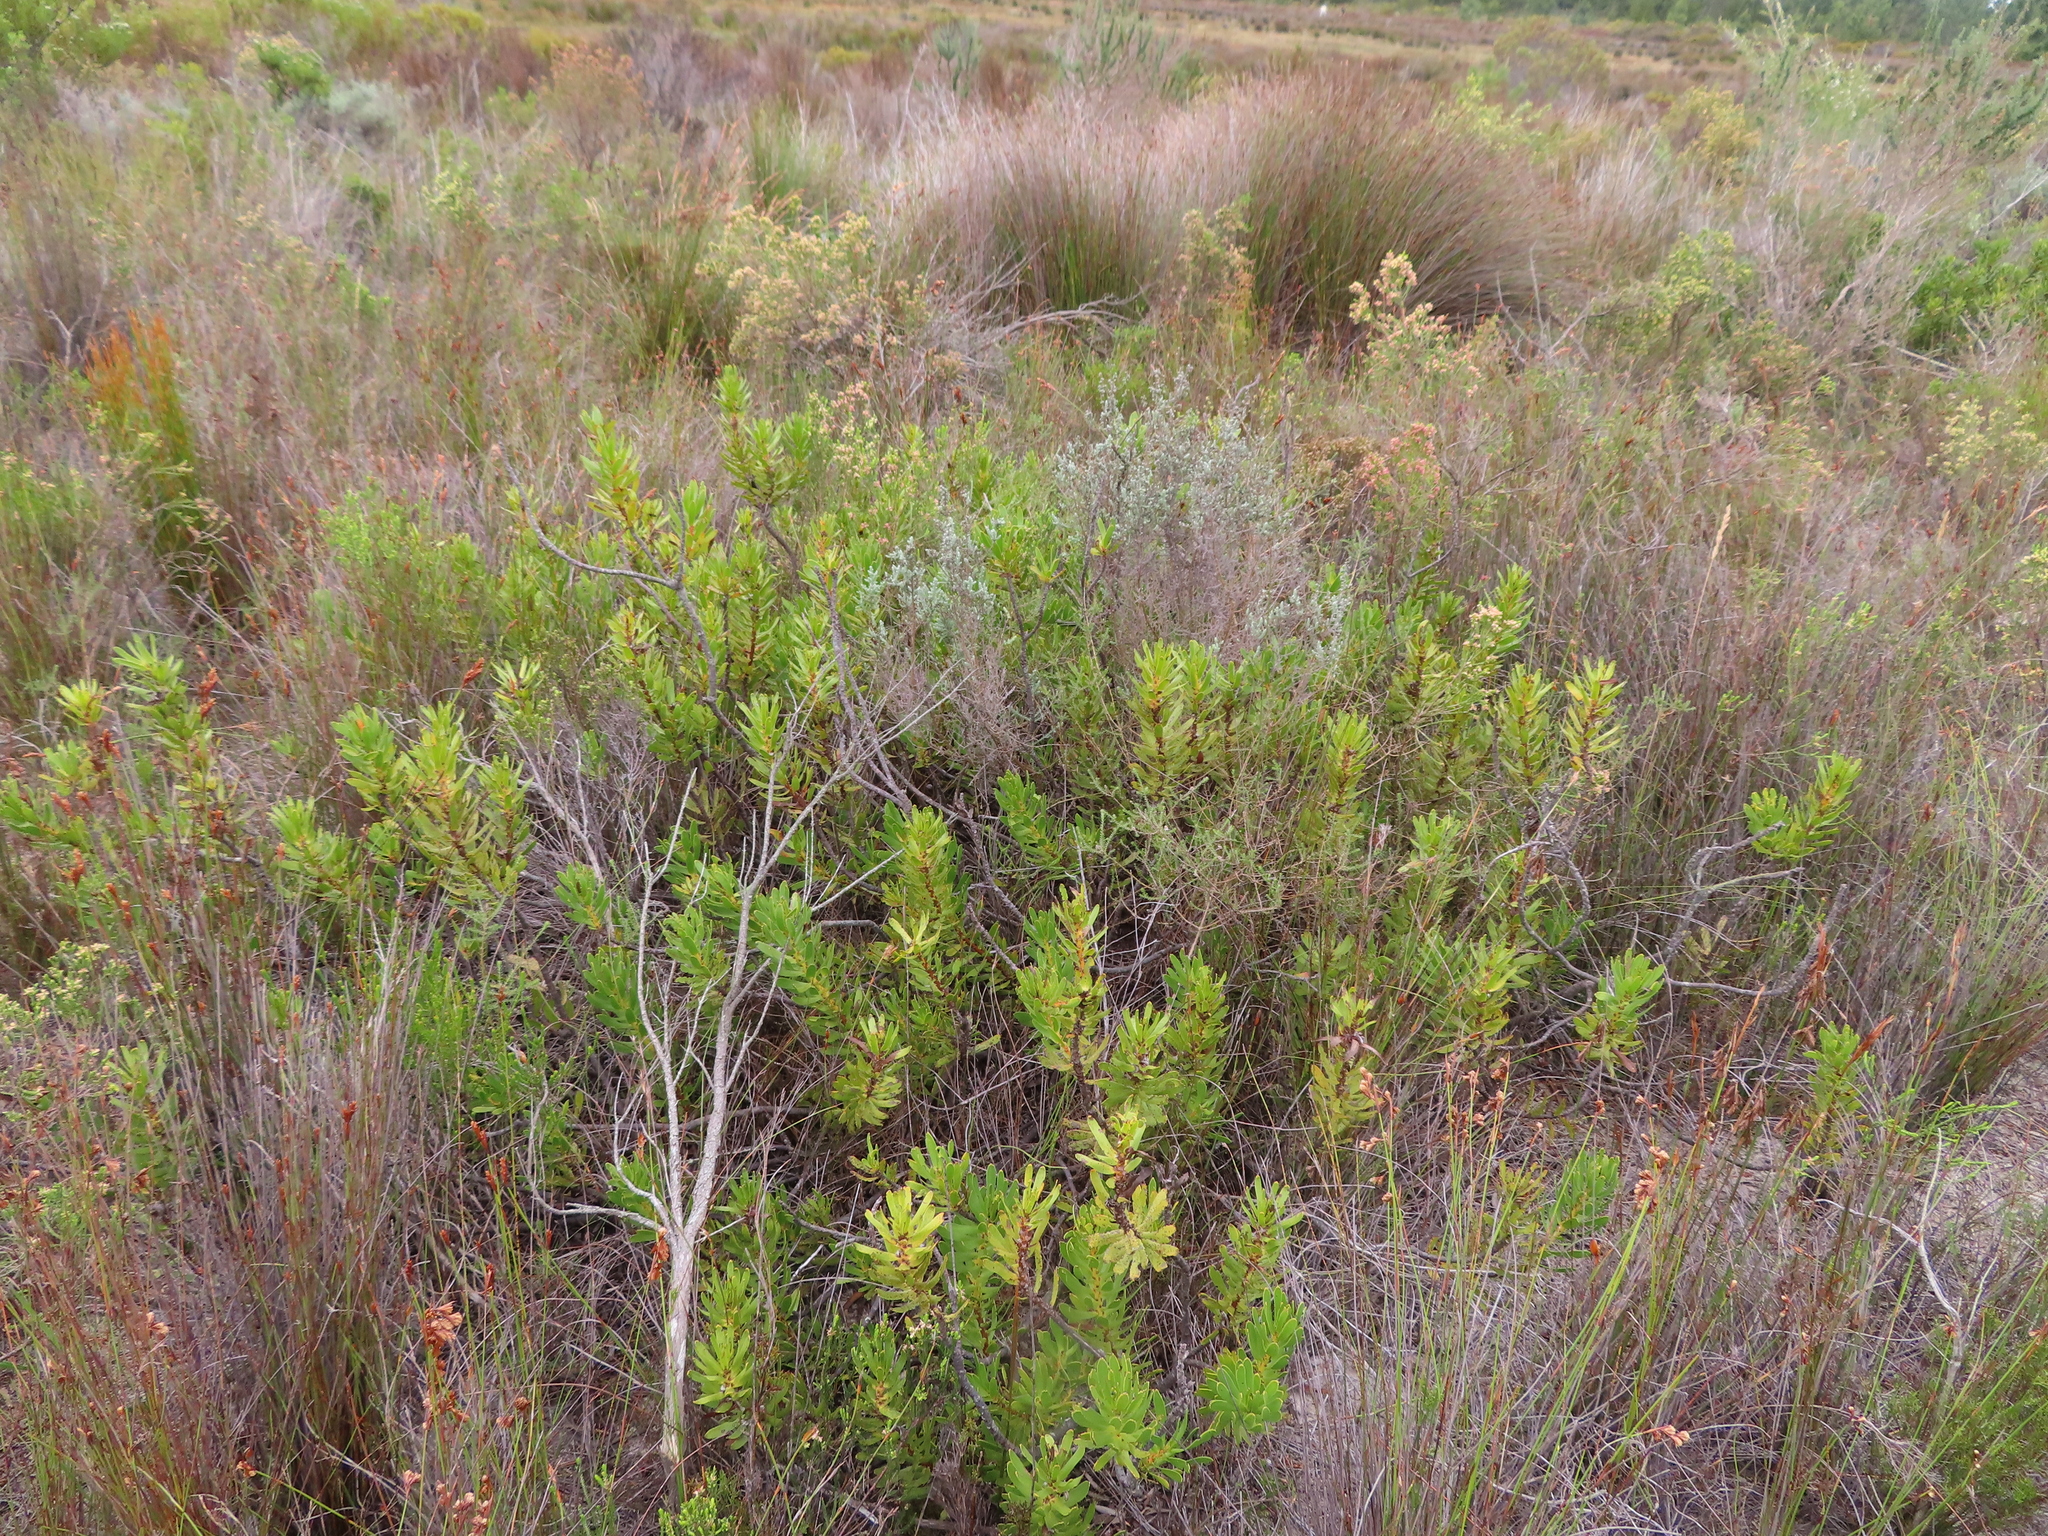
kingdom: Plantae
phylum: Tracheophyta
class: Magnoliopsida
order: Proteales
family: Proteaceae
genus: Mimetes
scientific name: Mimetes cucullatus
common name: Common pagoda
